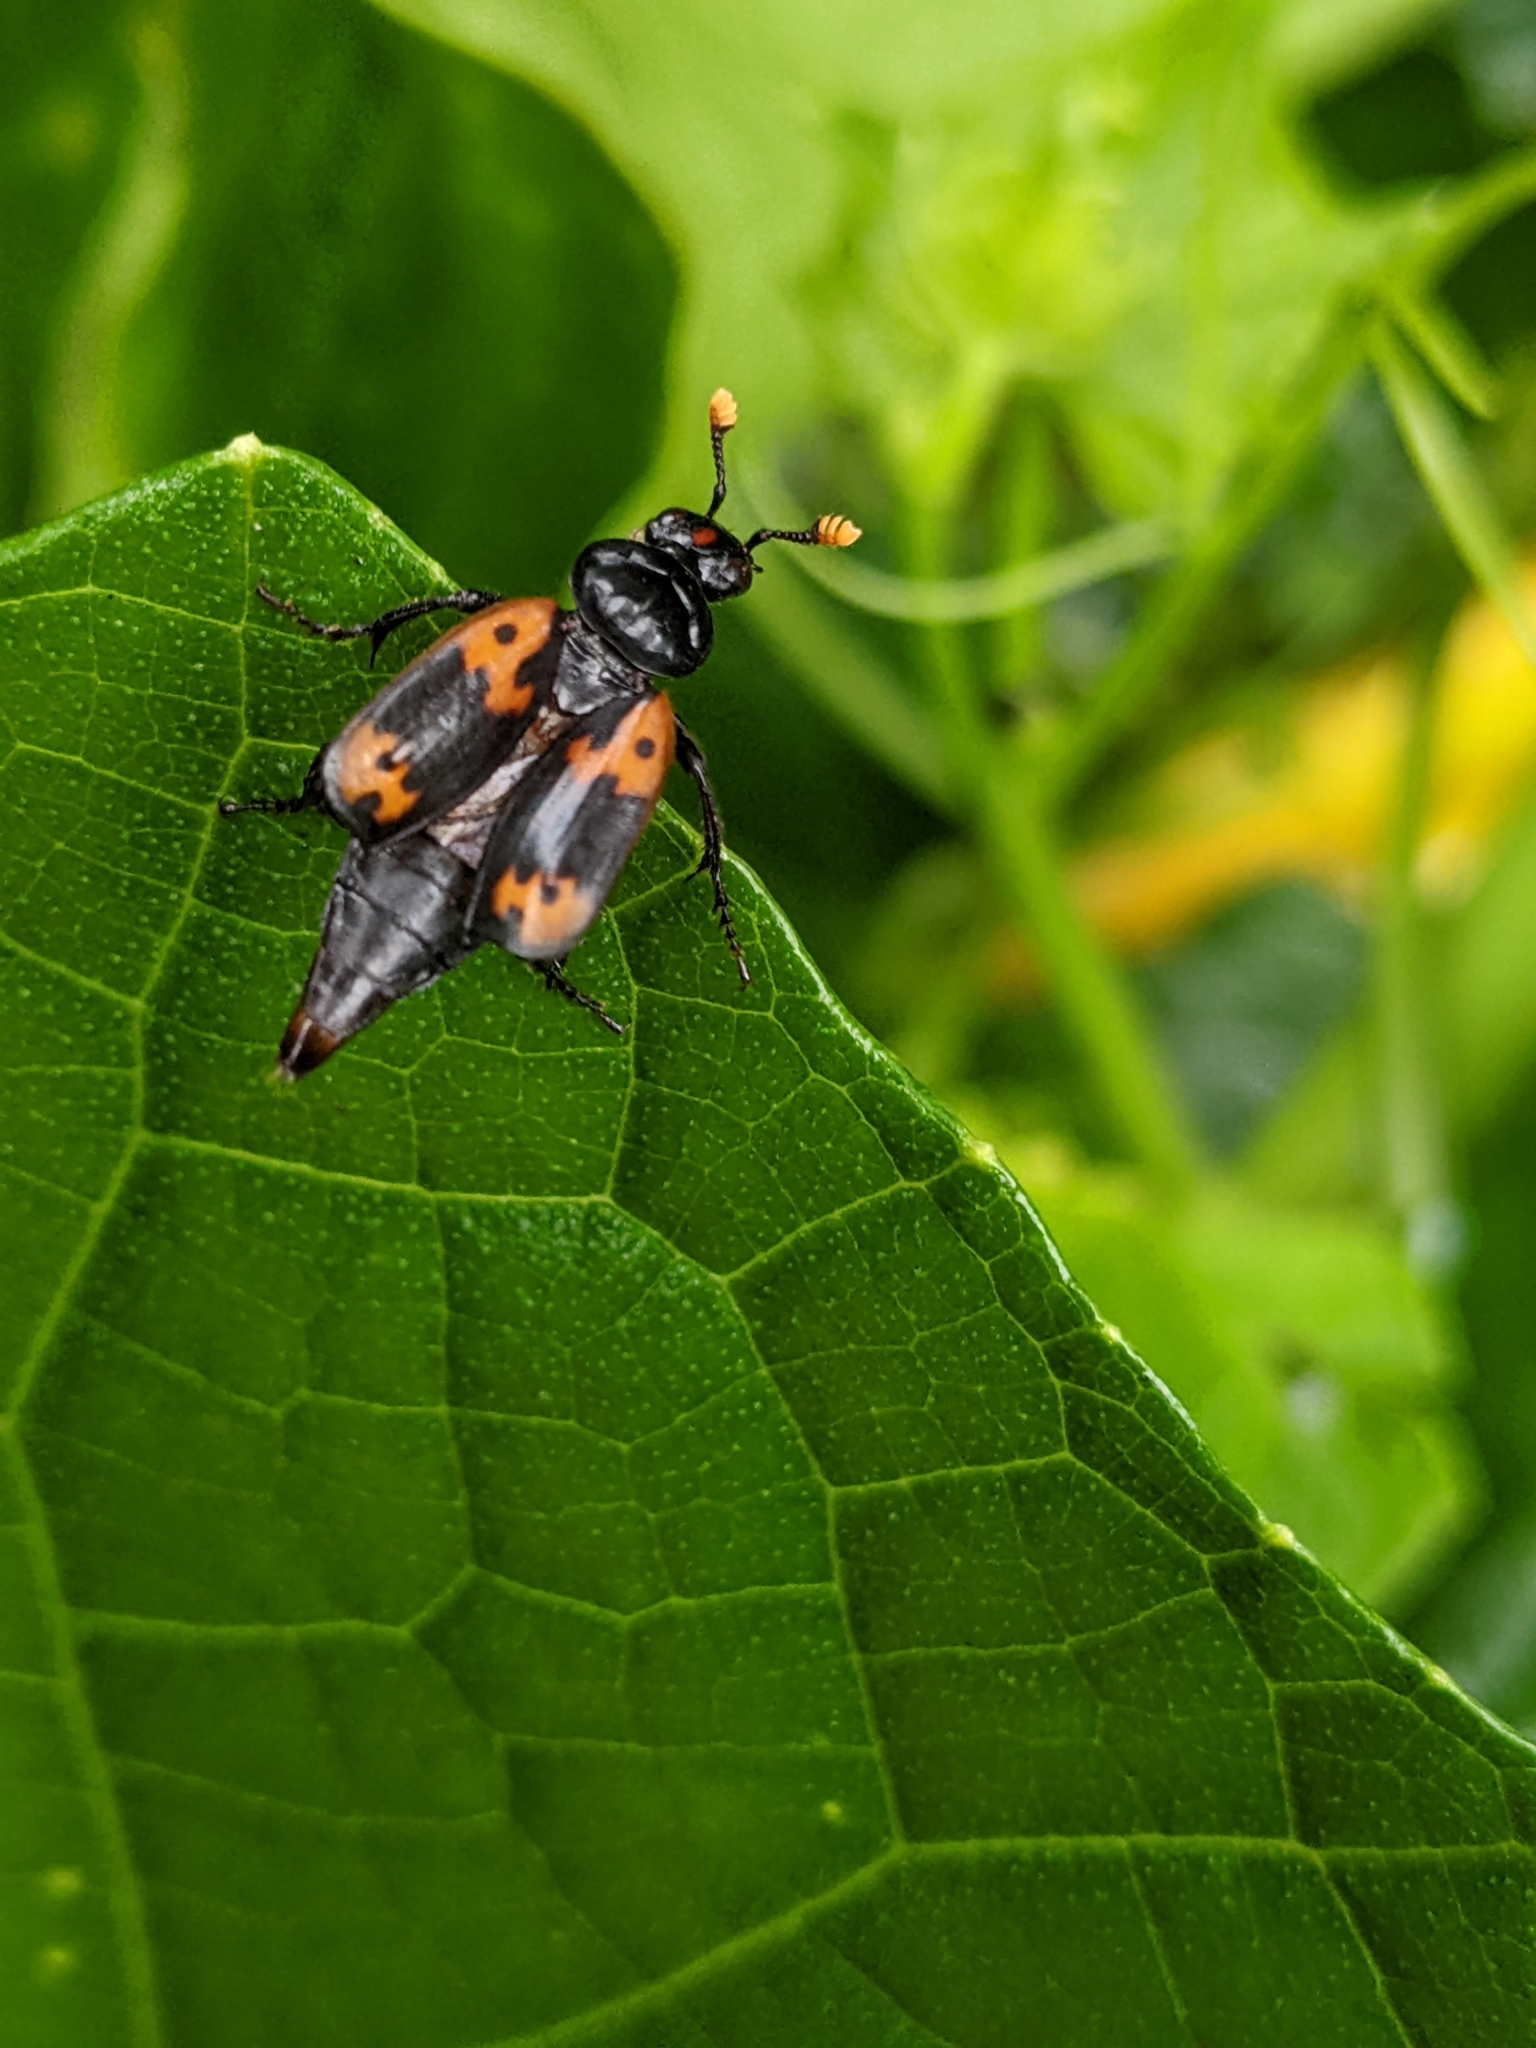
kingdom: Animalia
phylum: Arthropoda
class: Insecta
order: Coleoptera
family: Staphylinidae
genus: Nicrophorus
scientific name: Nicrophorus nepalensis
